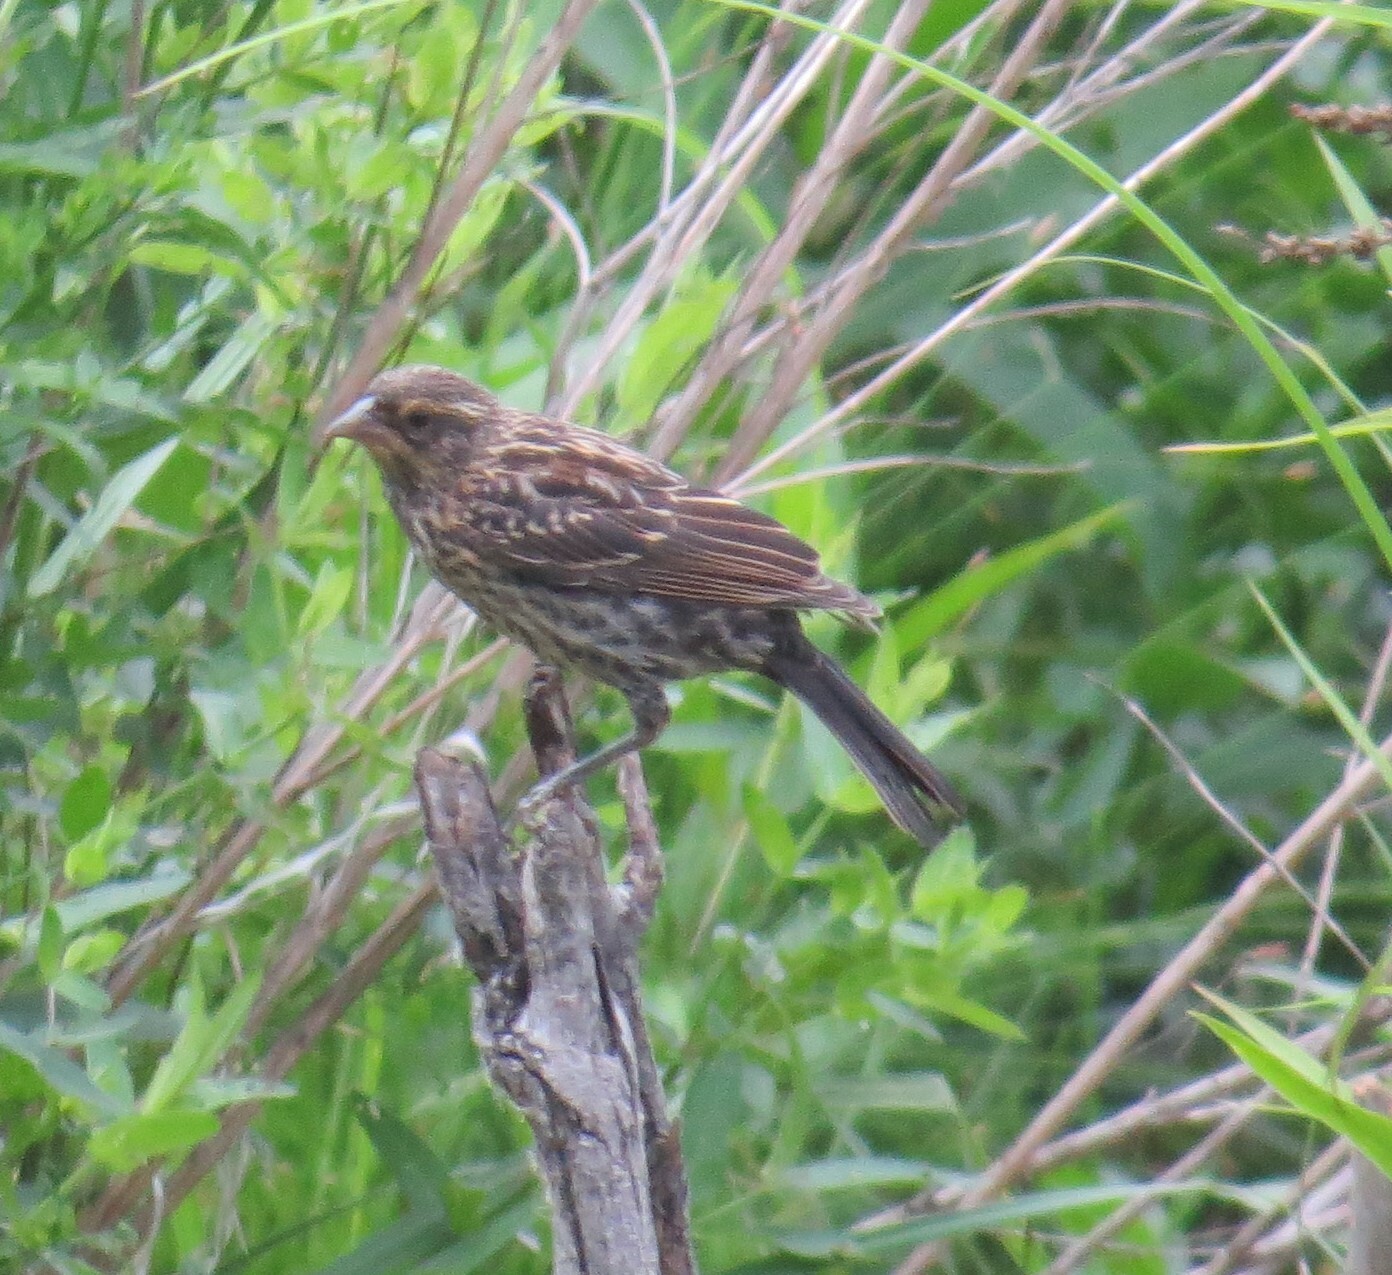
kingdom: Animalia
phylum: Chordata
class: Aves
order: Passeriformes
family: Icteridae
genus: Agelaius
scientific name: Agelaius phoeniceus
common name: Red-winged blackbird
